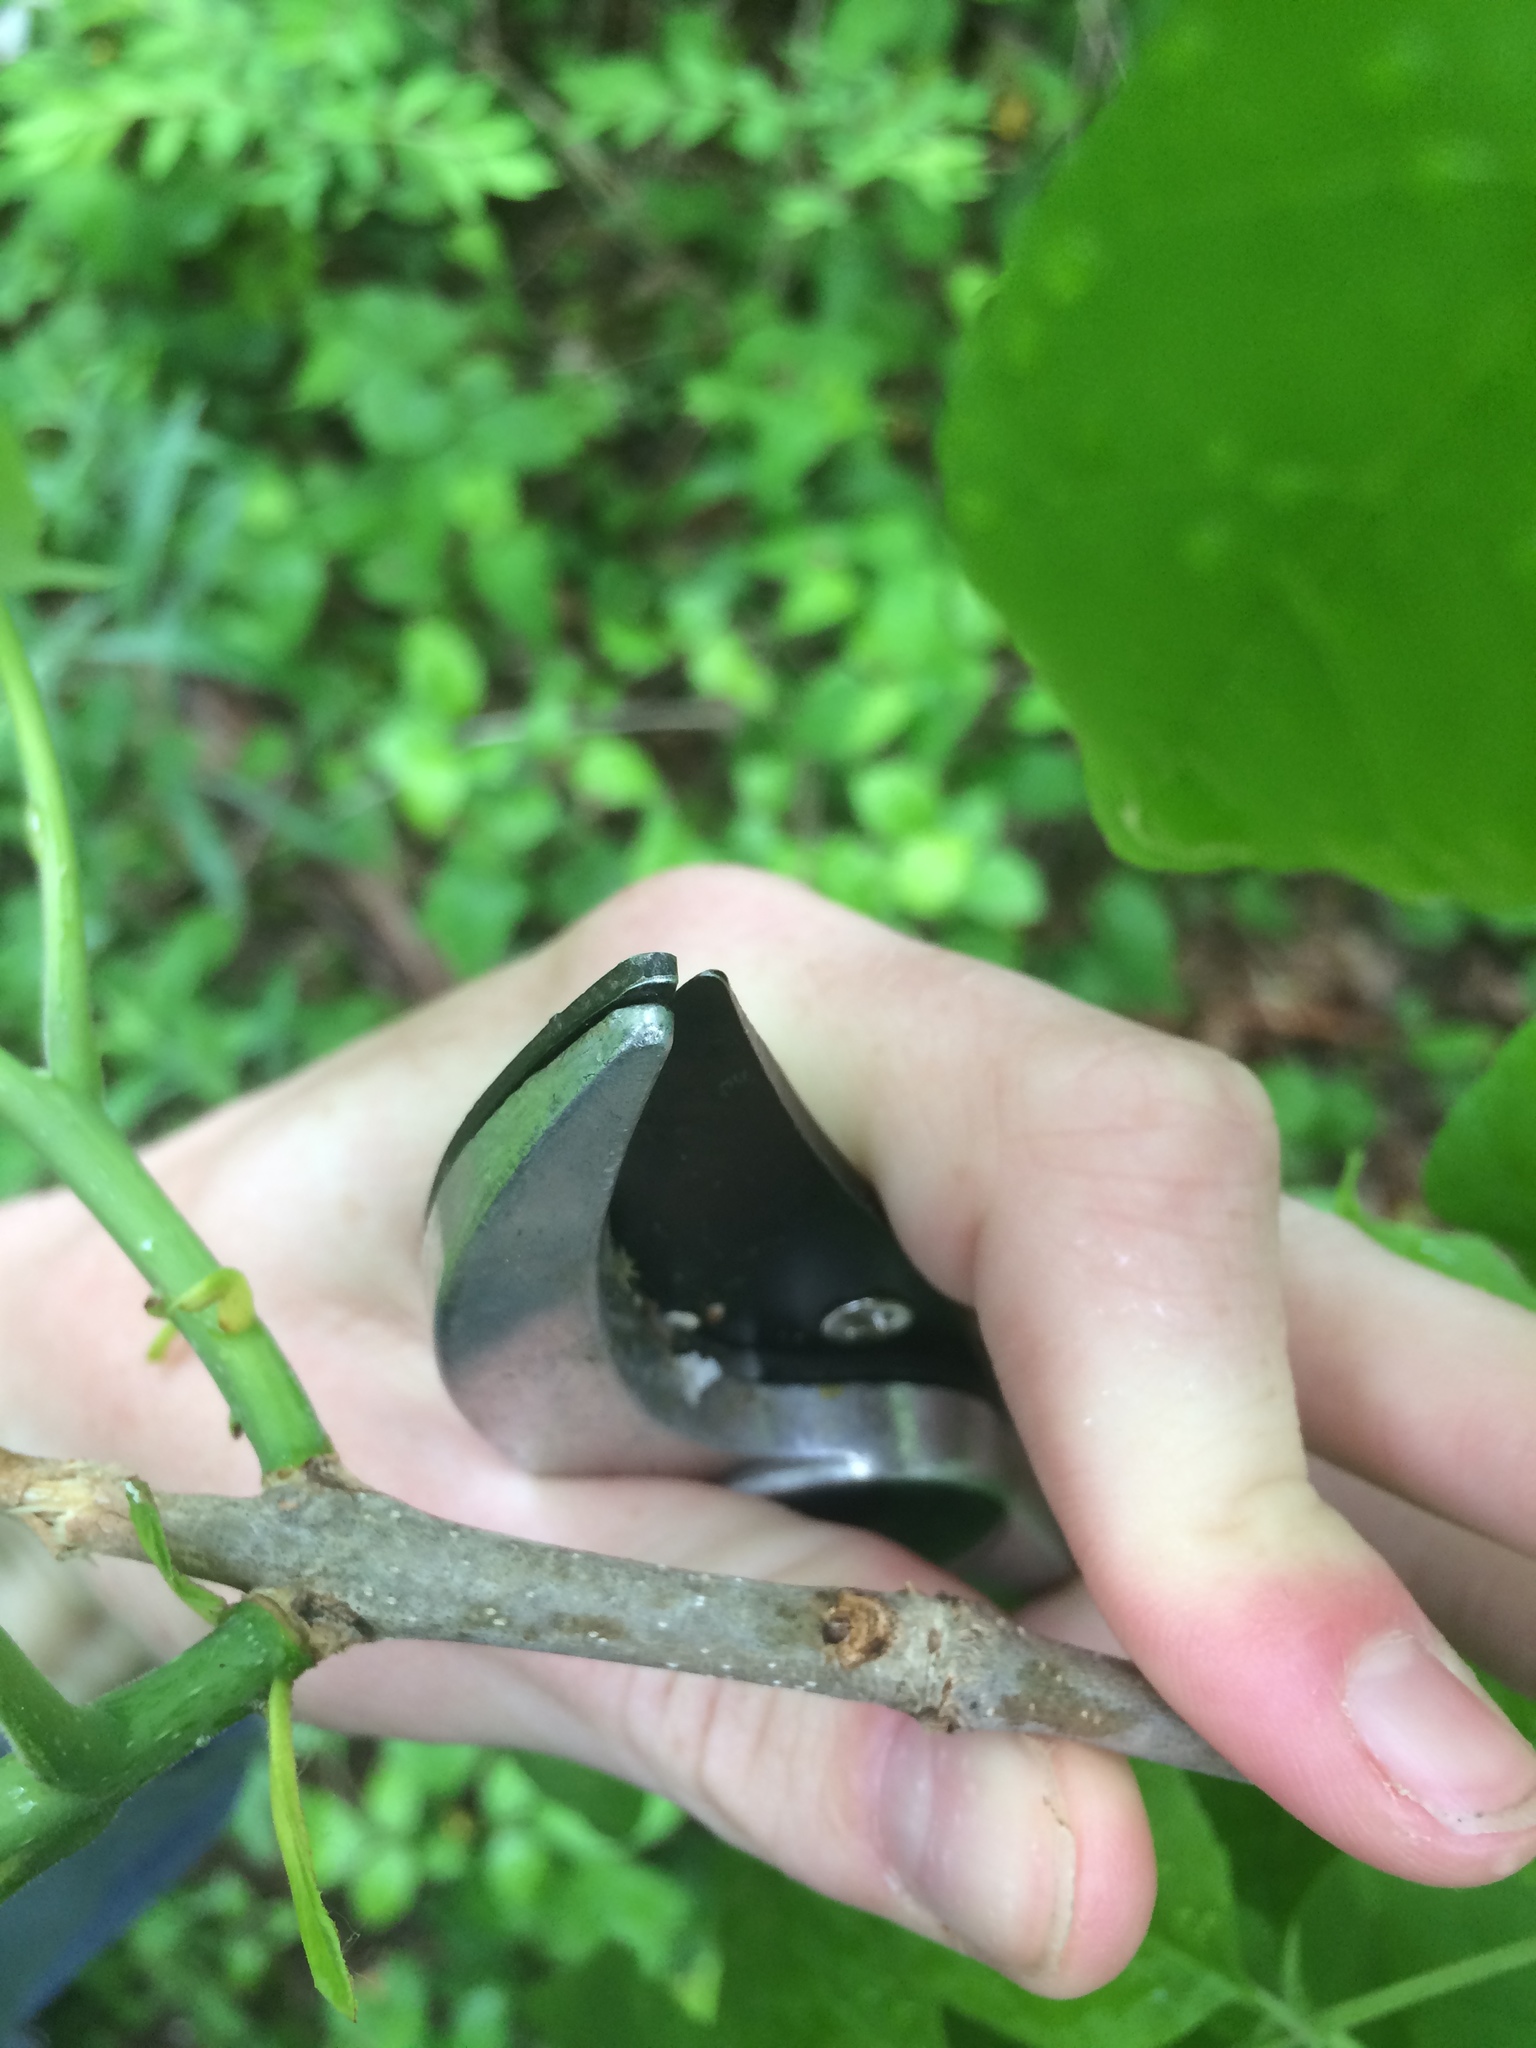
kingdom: Plantae
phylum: Tracheophyta
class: Magnoliopsida
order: Lamiales
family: Oleaceae
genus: Fraxinus
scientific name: Fraxinus pennsylvanica
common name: Green ash
